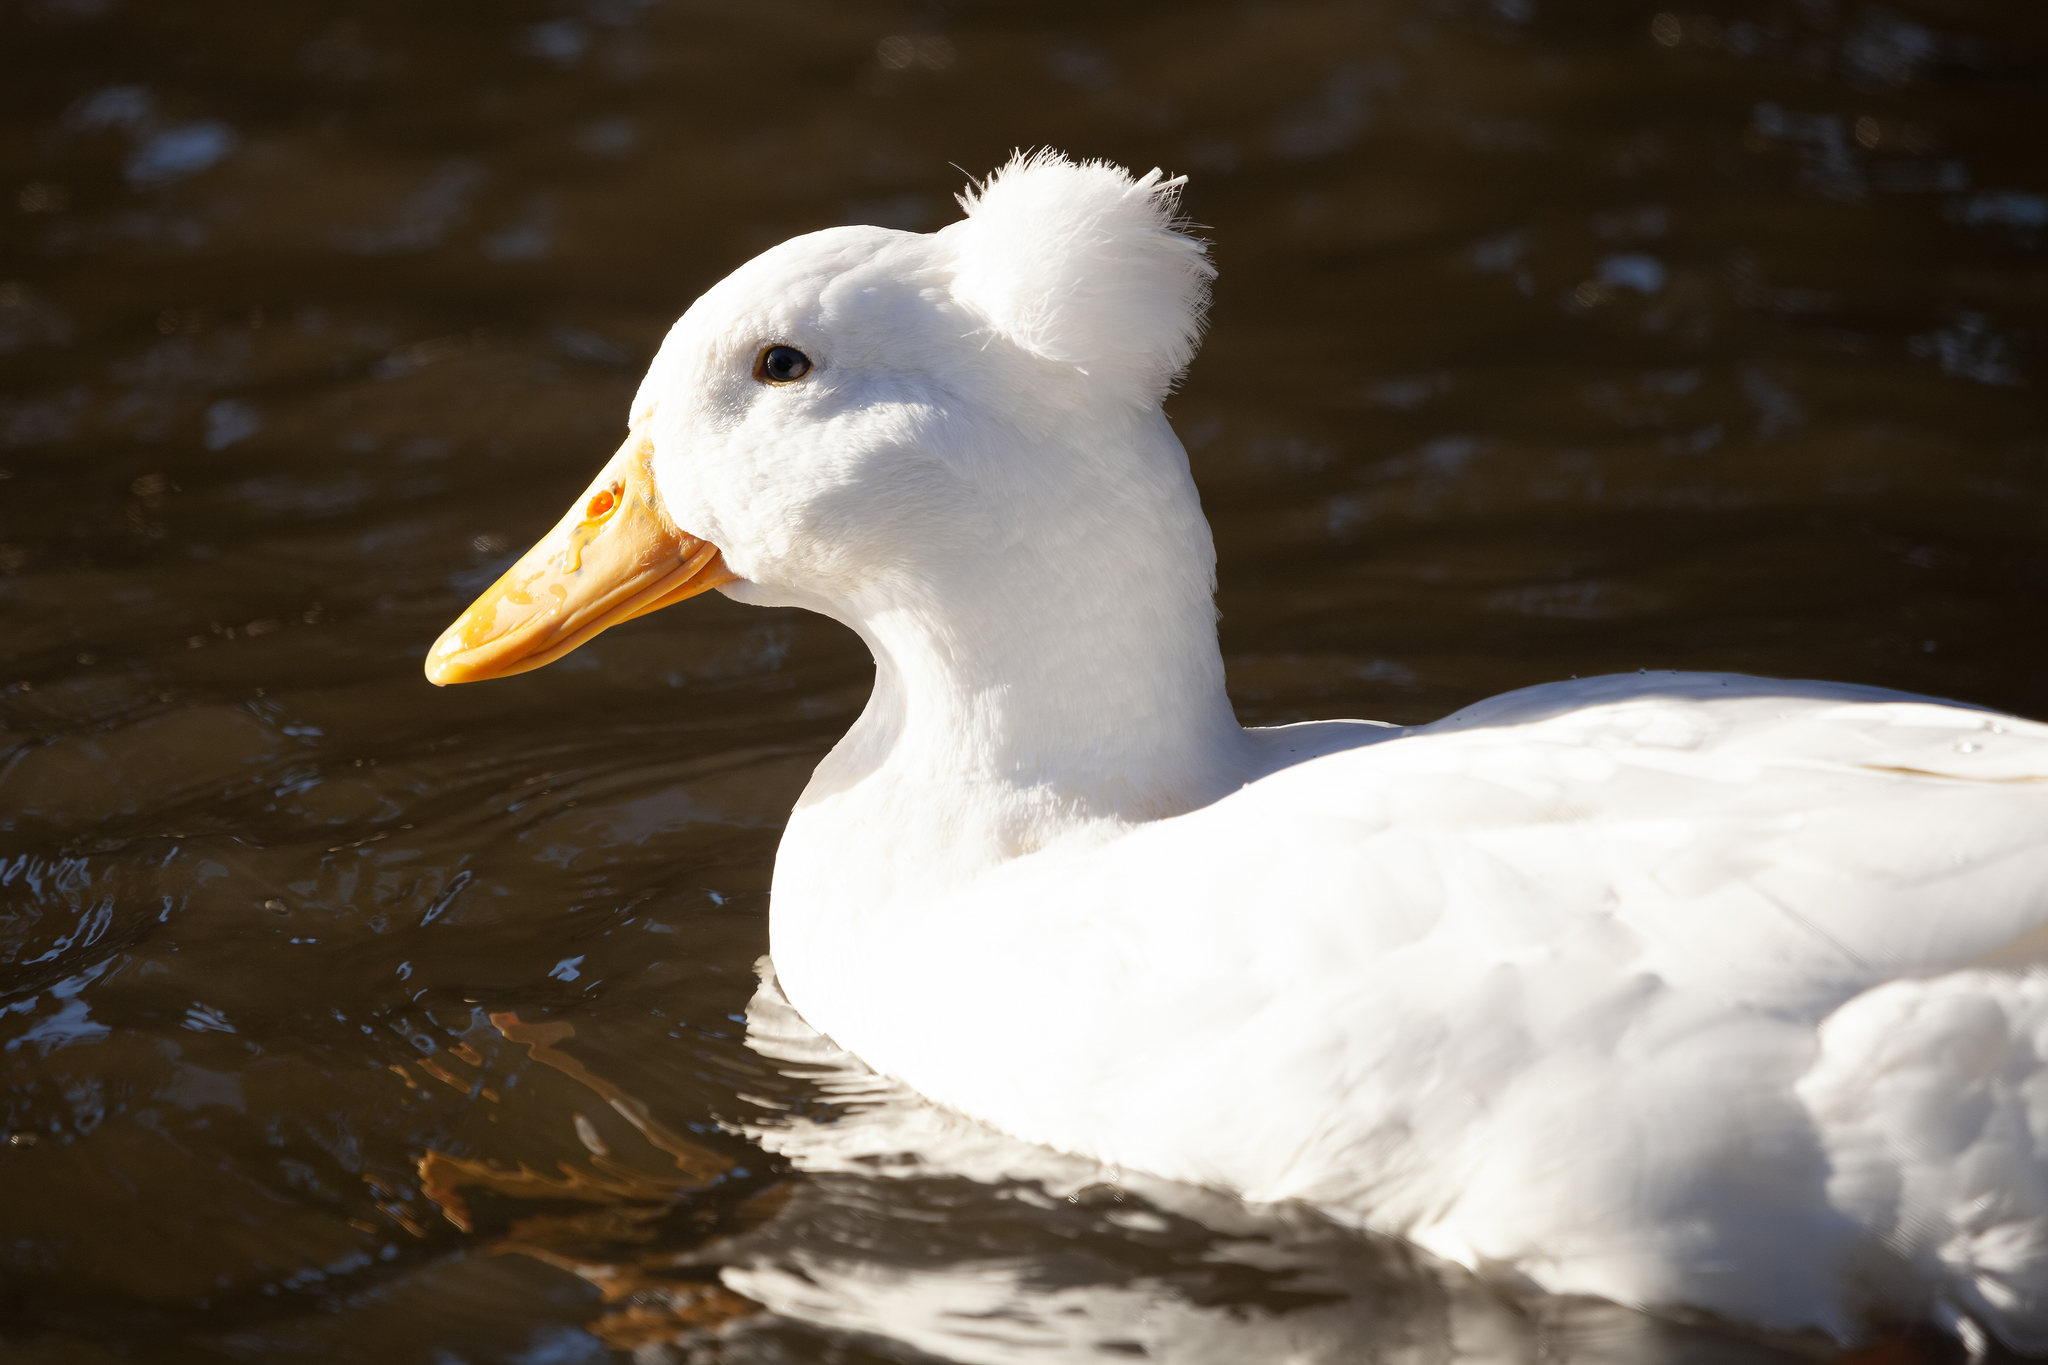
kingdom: Animalia
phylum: Chordata
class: Aves
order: Anseriformes
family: Anatidae
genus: Anas
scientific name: Anas platyrhynchos
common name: Mallard
